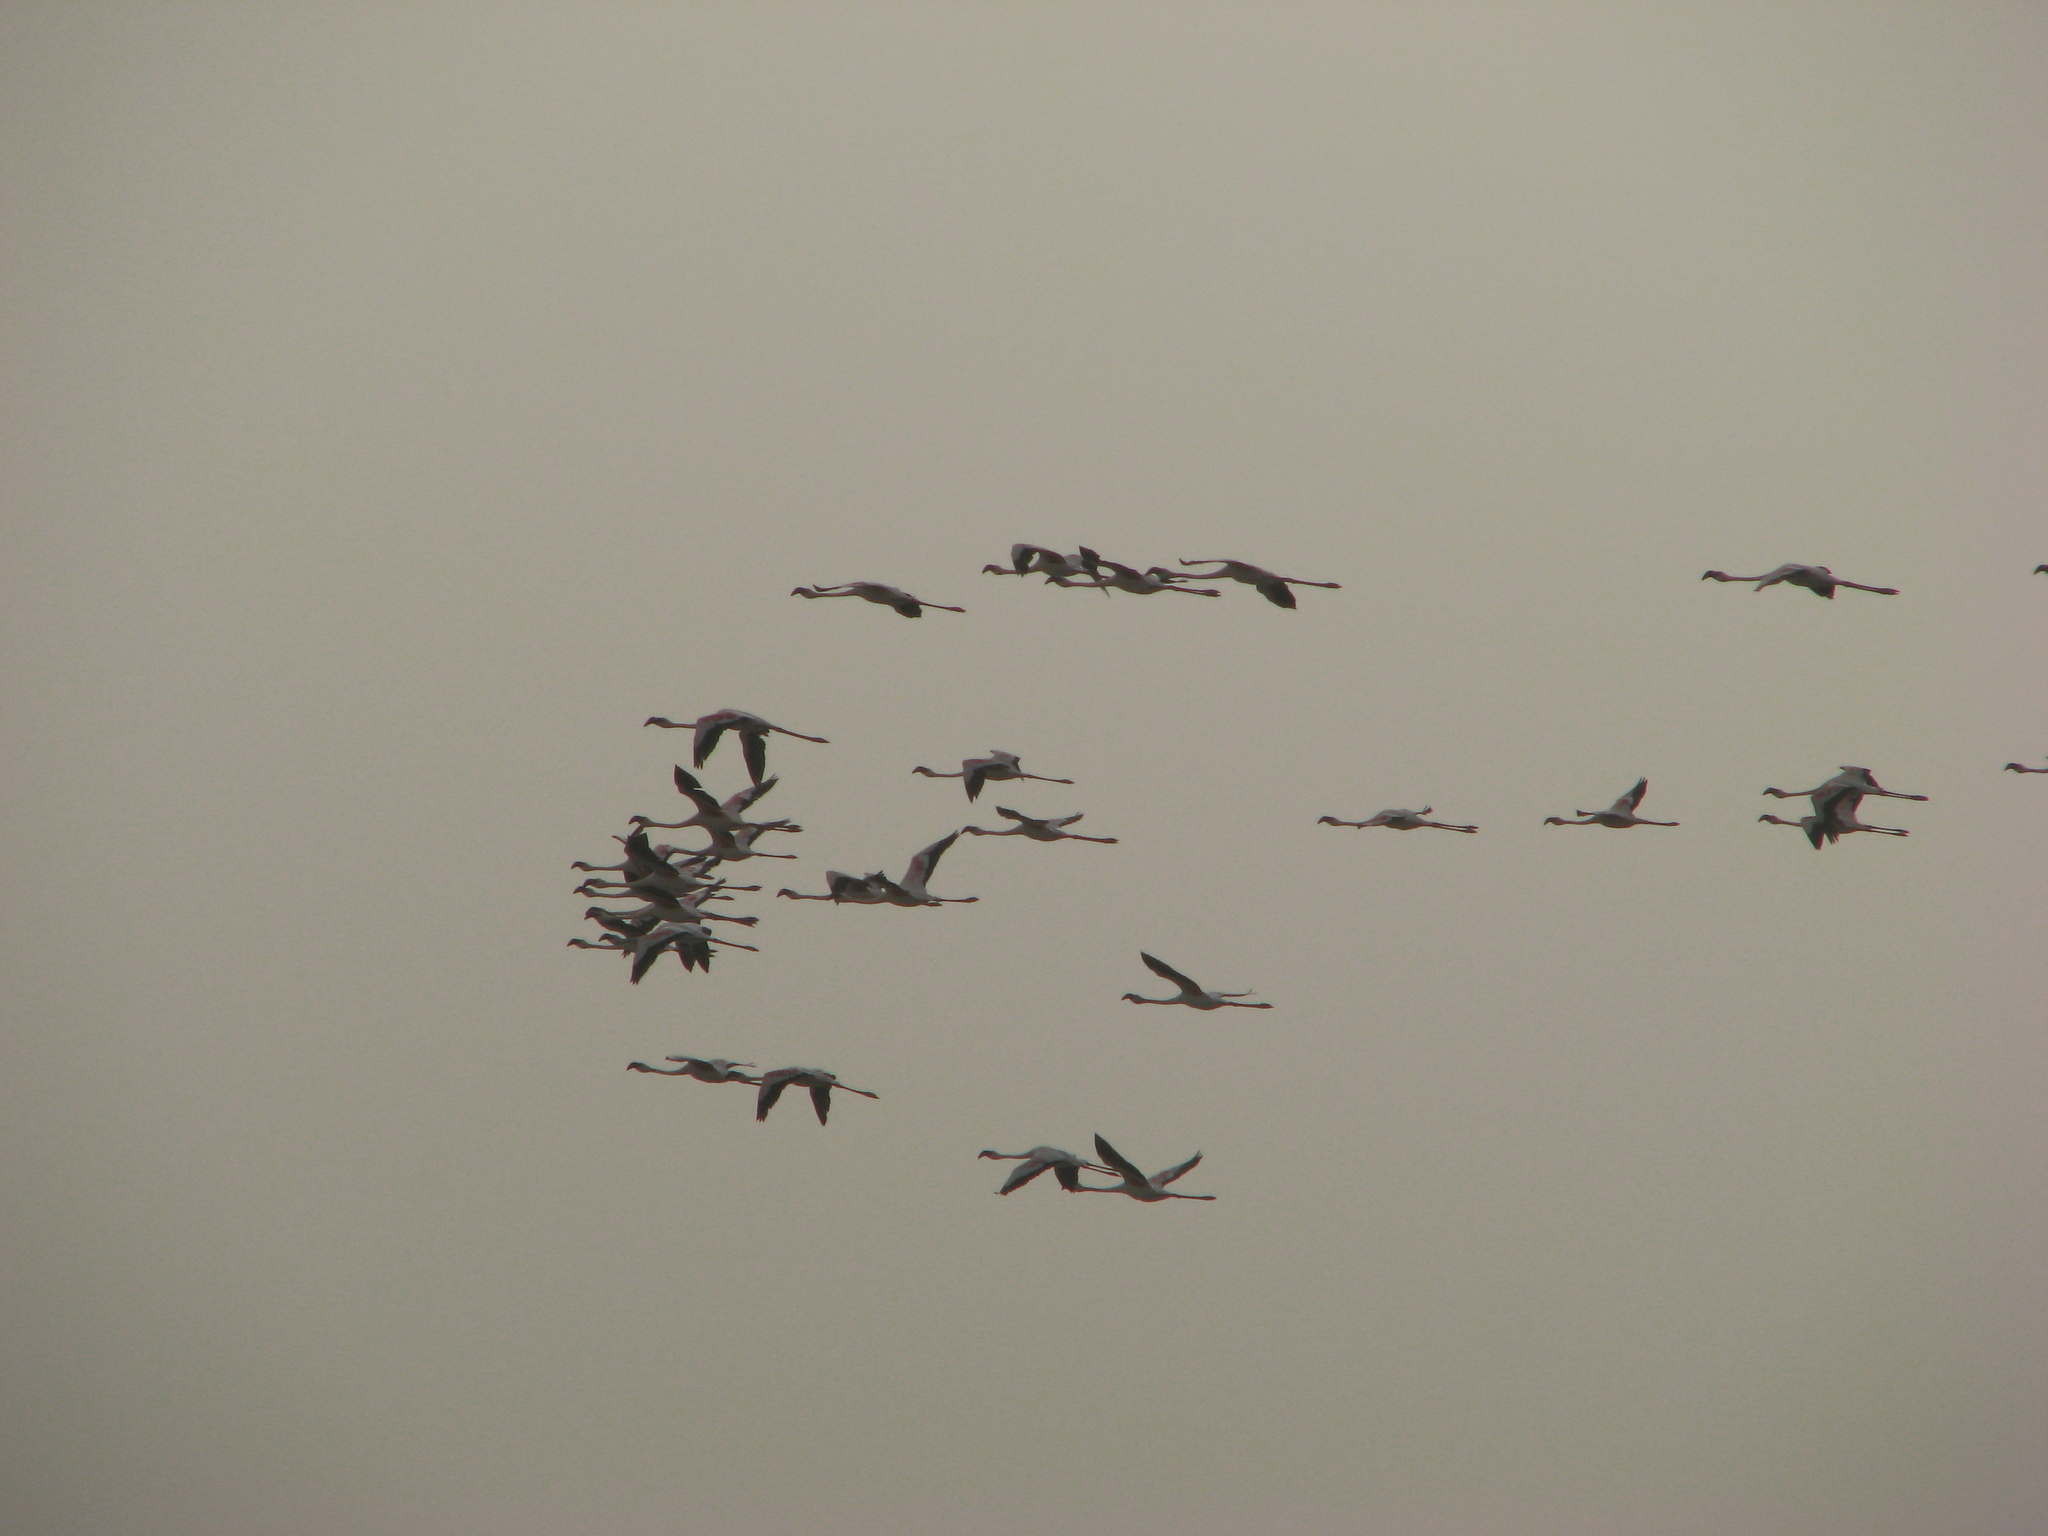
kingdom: Animalia
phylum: Chordata
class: Aves
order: Phoenicopteriformes
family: Phoenicopteridae
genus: Phoenicopterus
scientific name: Phoenicopterus roseus
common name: Greater flamingo
